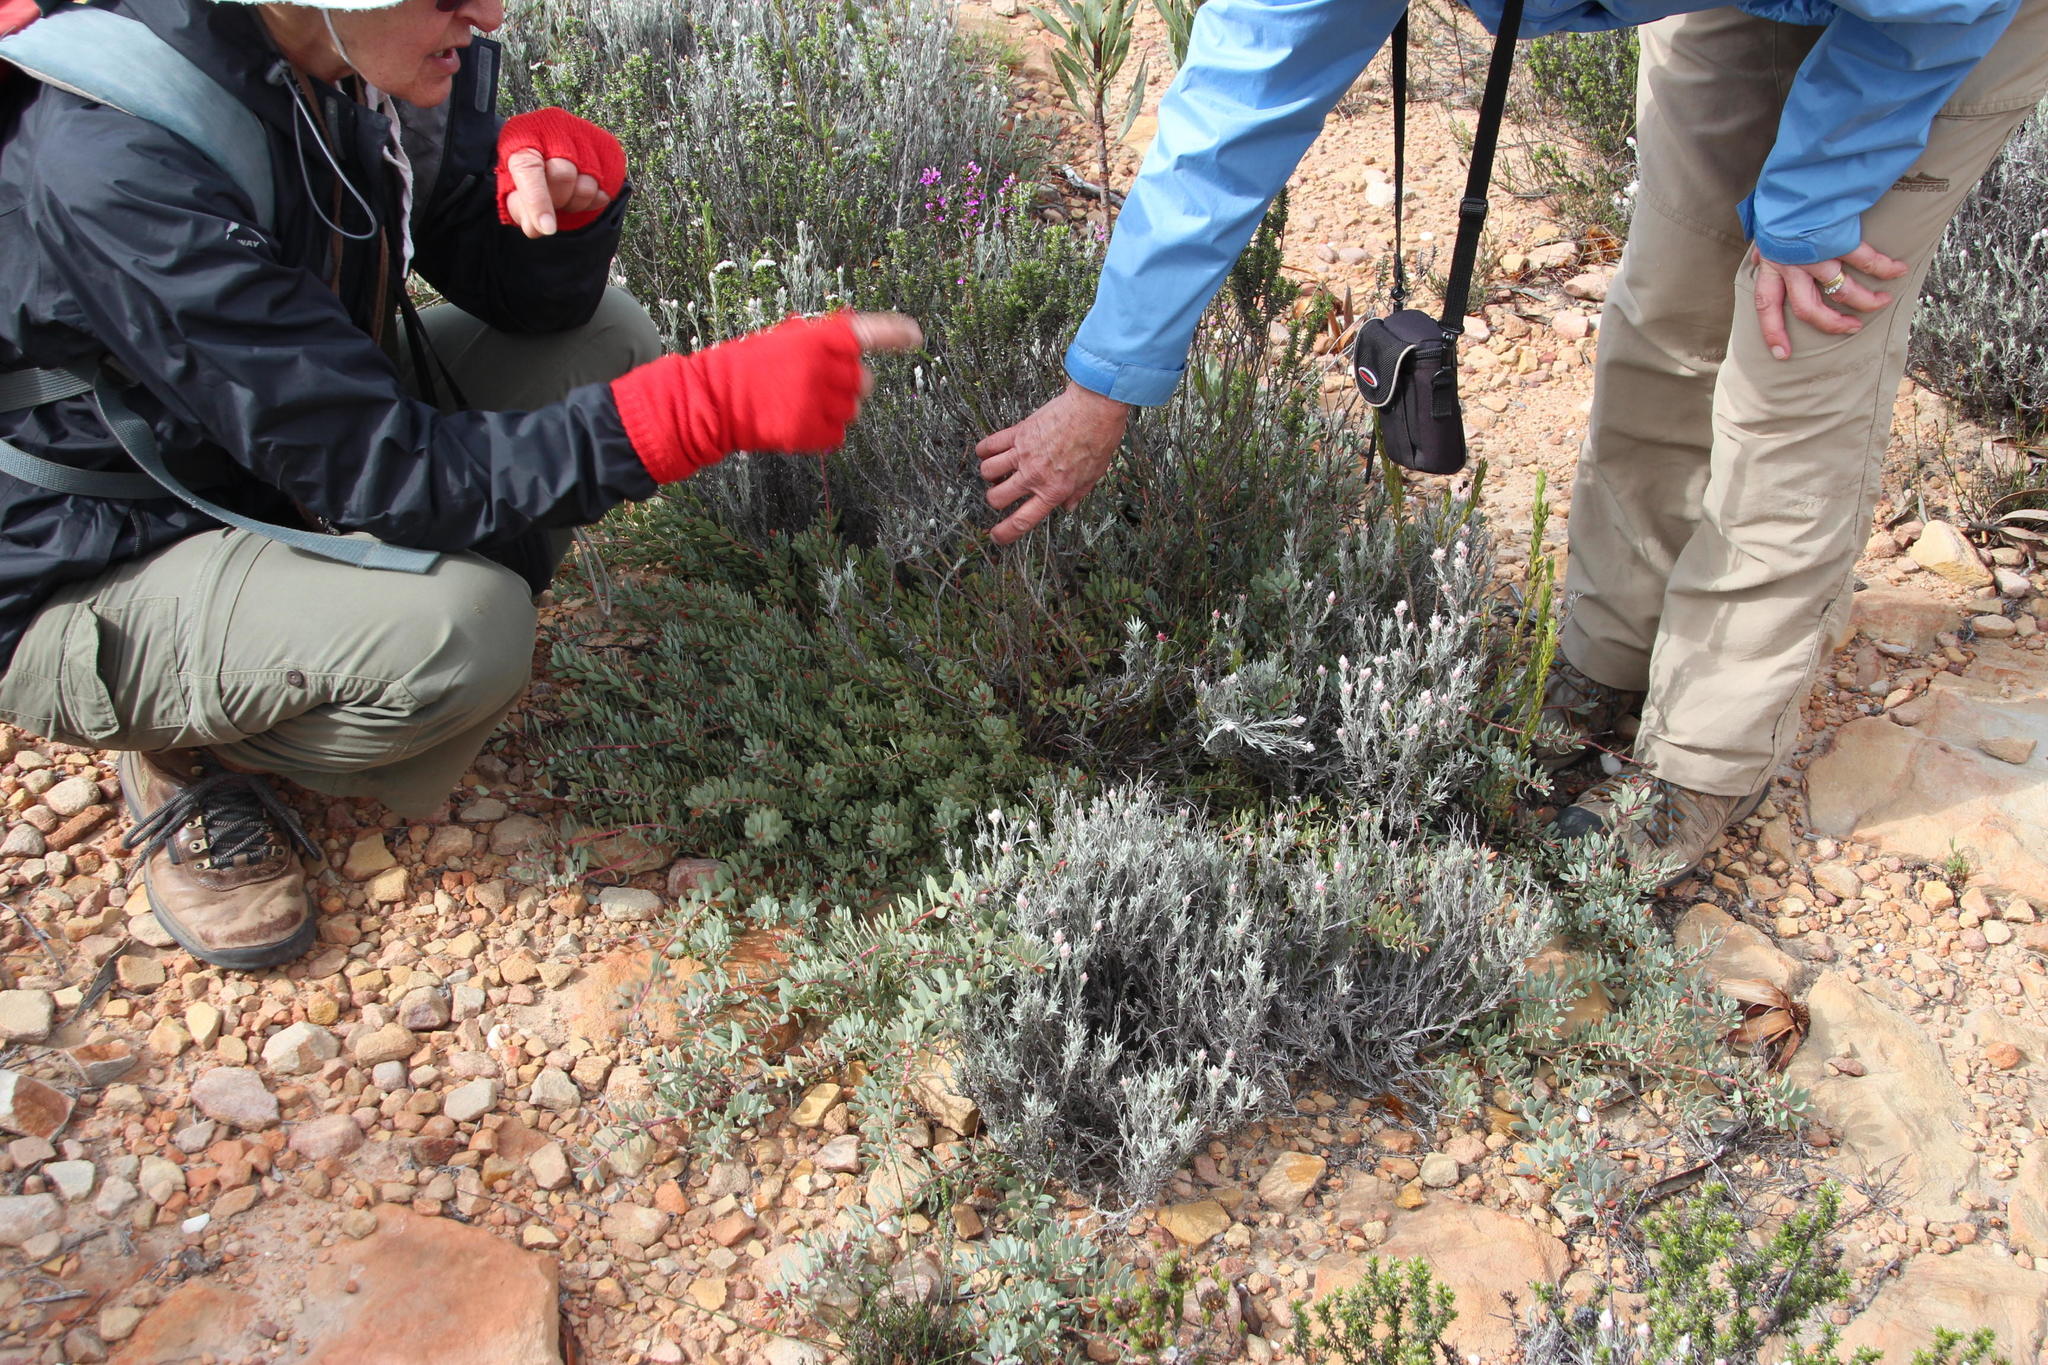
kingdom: Plantae
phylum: Tracheophyta
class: Magnoliopsida
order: Proteales
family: Proteaceae
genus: Vexatorella
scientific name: Vexatorella obtusata
